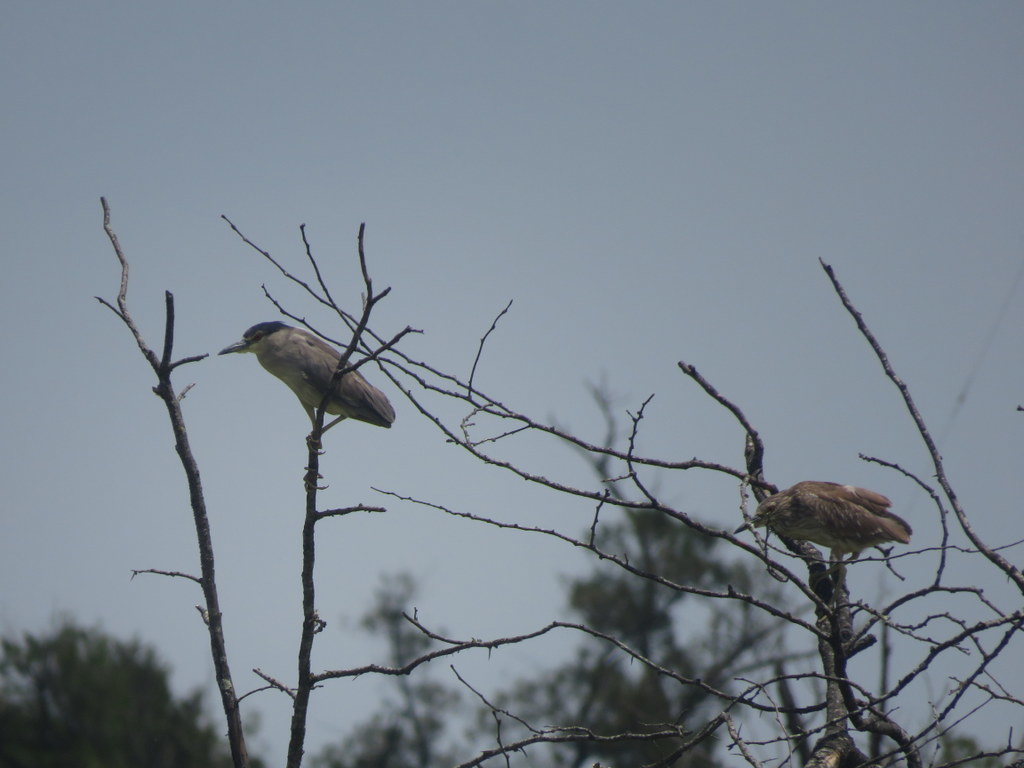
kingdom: Animalia
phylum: Chordata
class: Aves
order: Pelecaniformes
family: Ardeidae
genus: Nycticorax
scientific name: Nycticorax nycticorax
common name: Black-crowned night heron
